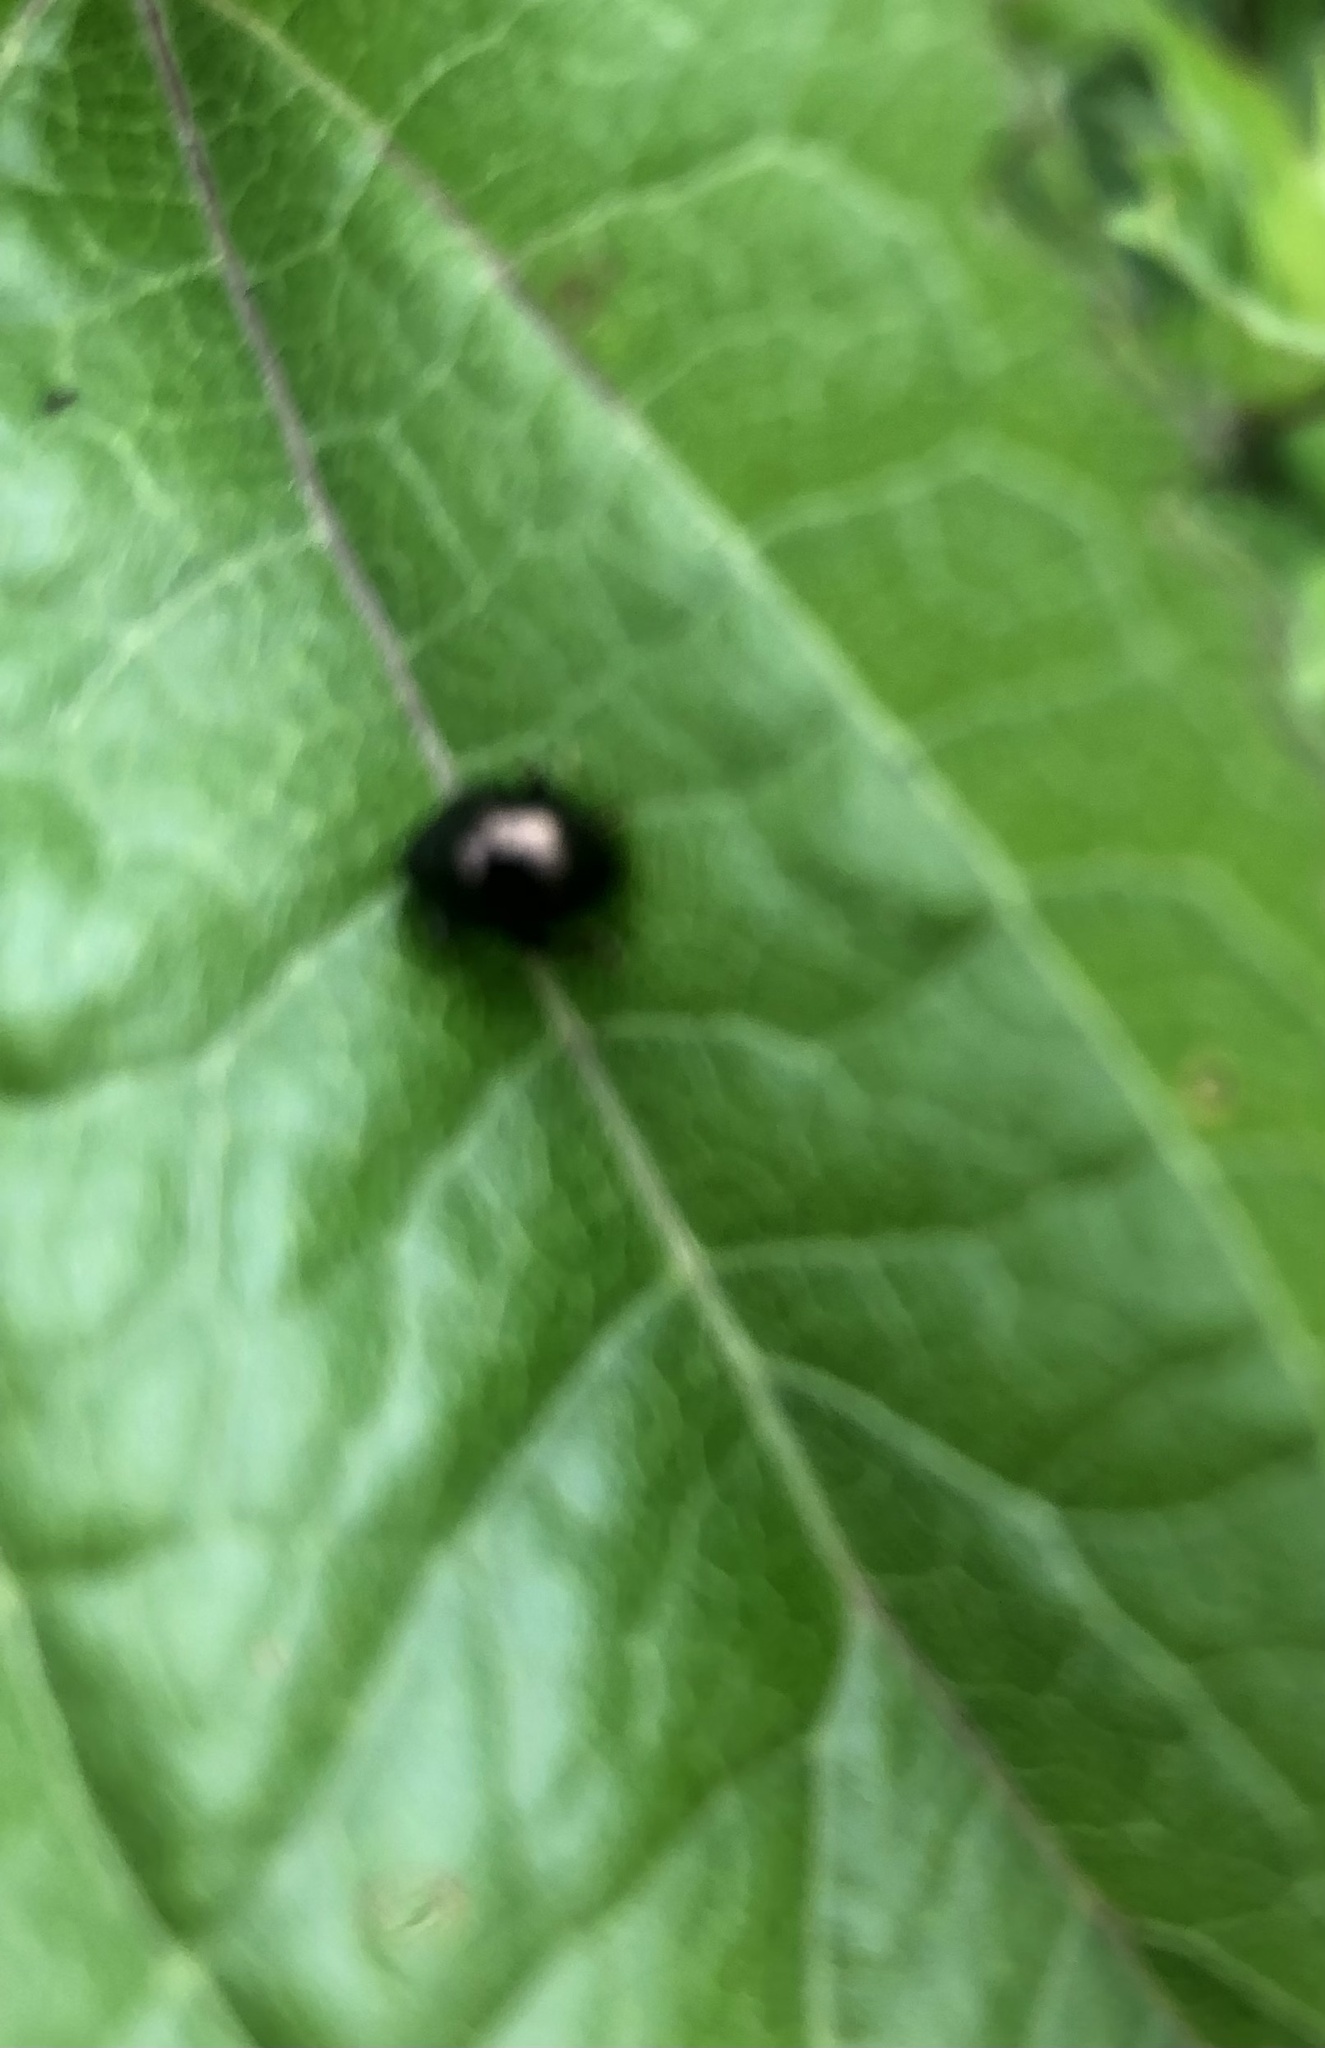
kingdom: Animalia
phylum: Arthropoda
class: Insecta
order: Coleoptera
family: Chrysomelidae
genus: Dibolia
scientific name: Dibolia borealis
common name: Northern plantain flea beetle
